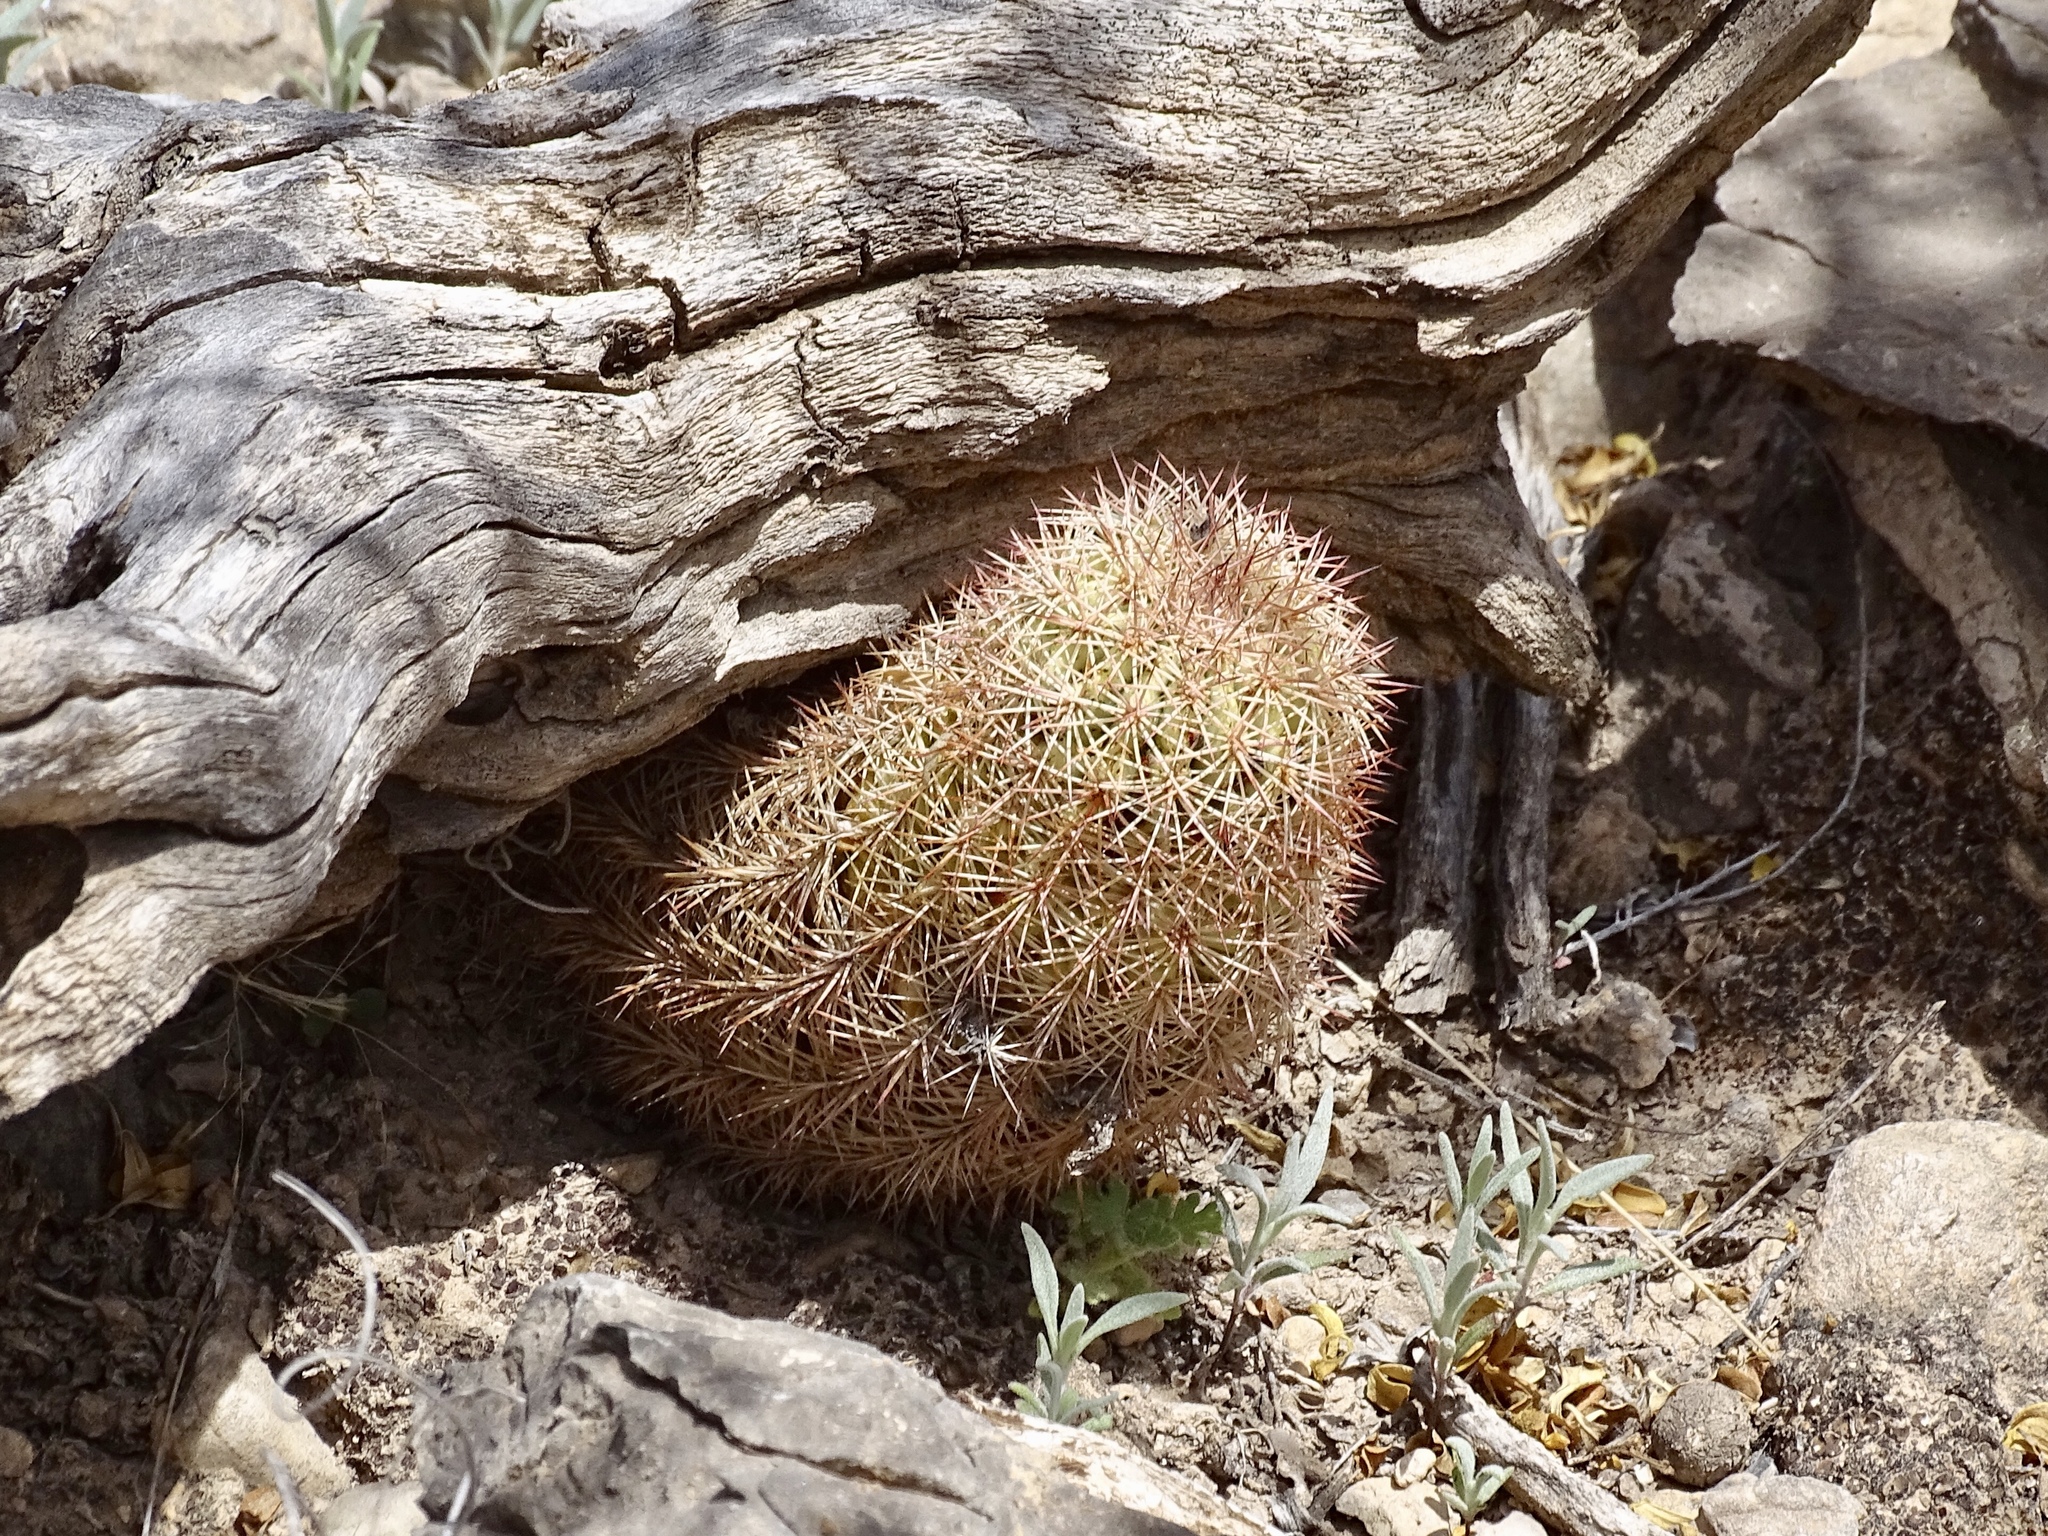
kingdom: Plantae
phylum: Tracheophyta
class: Magnoliopsida
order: Caryophyllales
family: Cactaceae
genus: Echinocereus
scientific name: Echinocereus dasyacanthus
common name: Spiny hedgehog cactus
